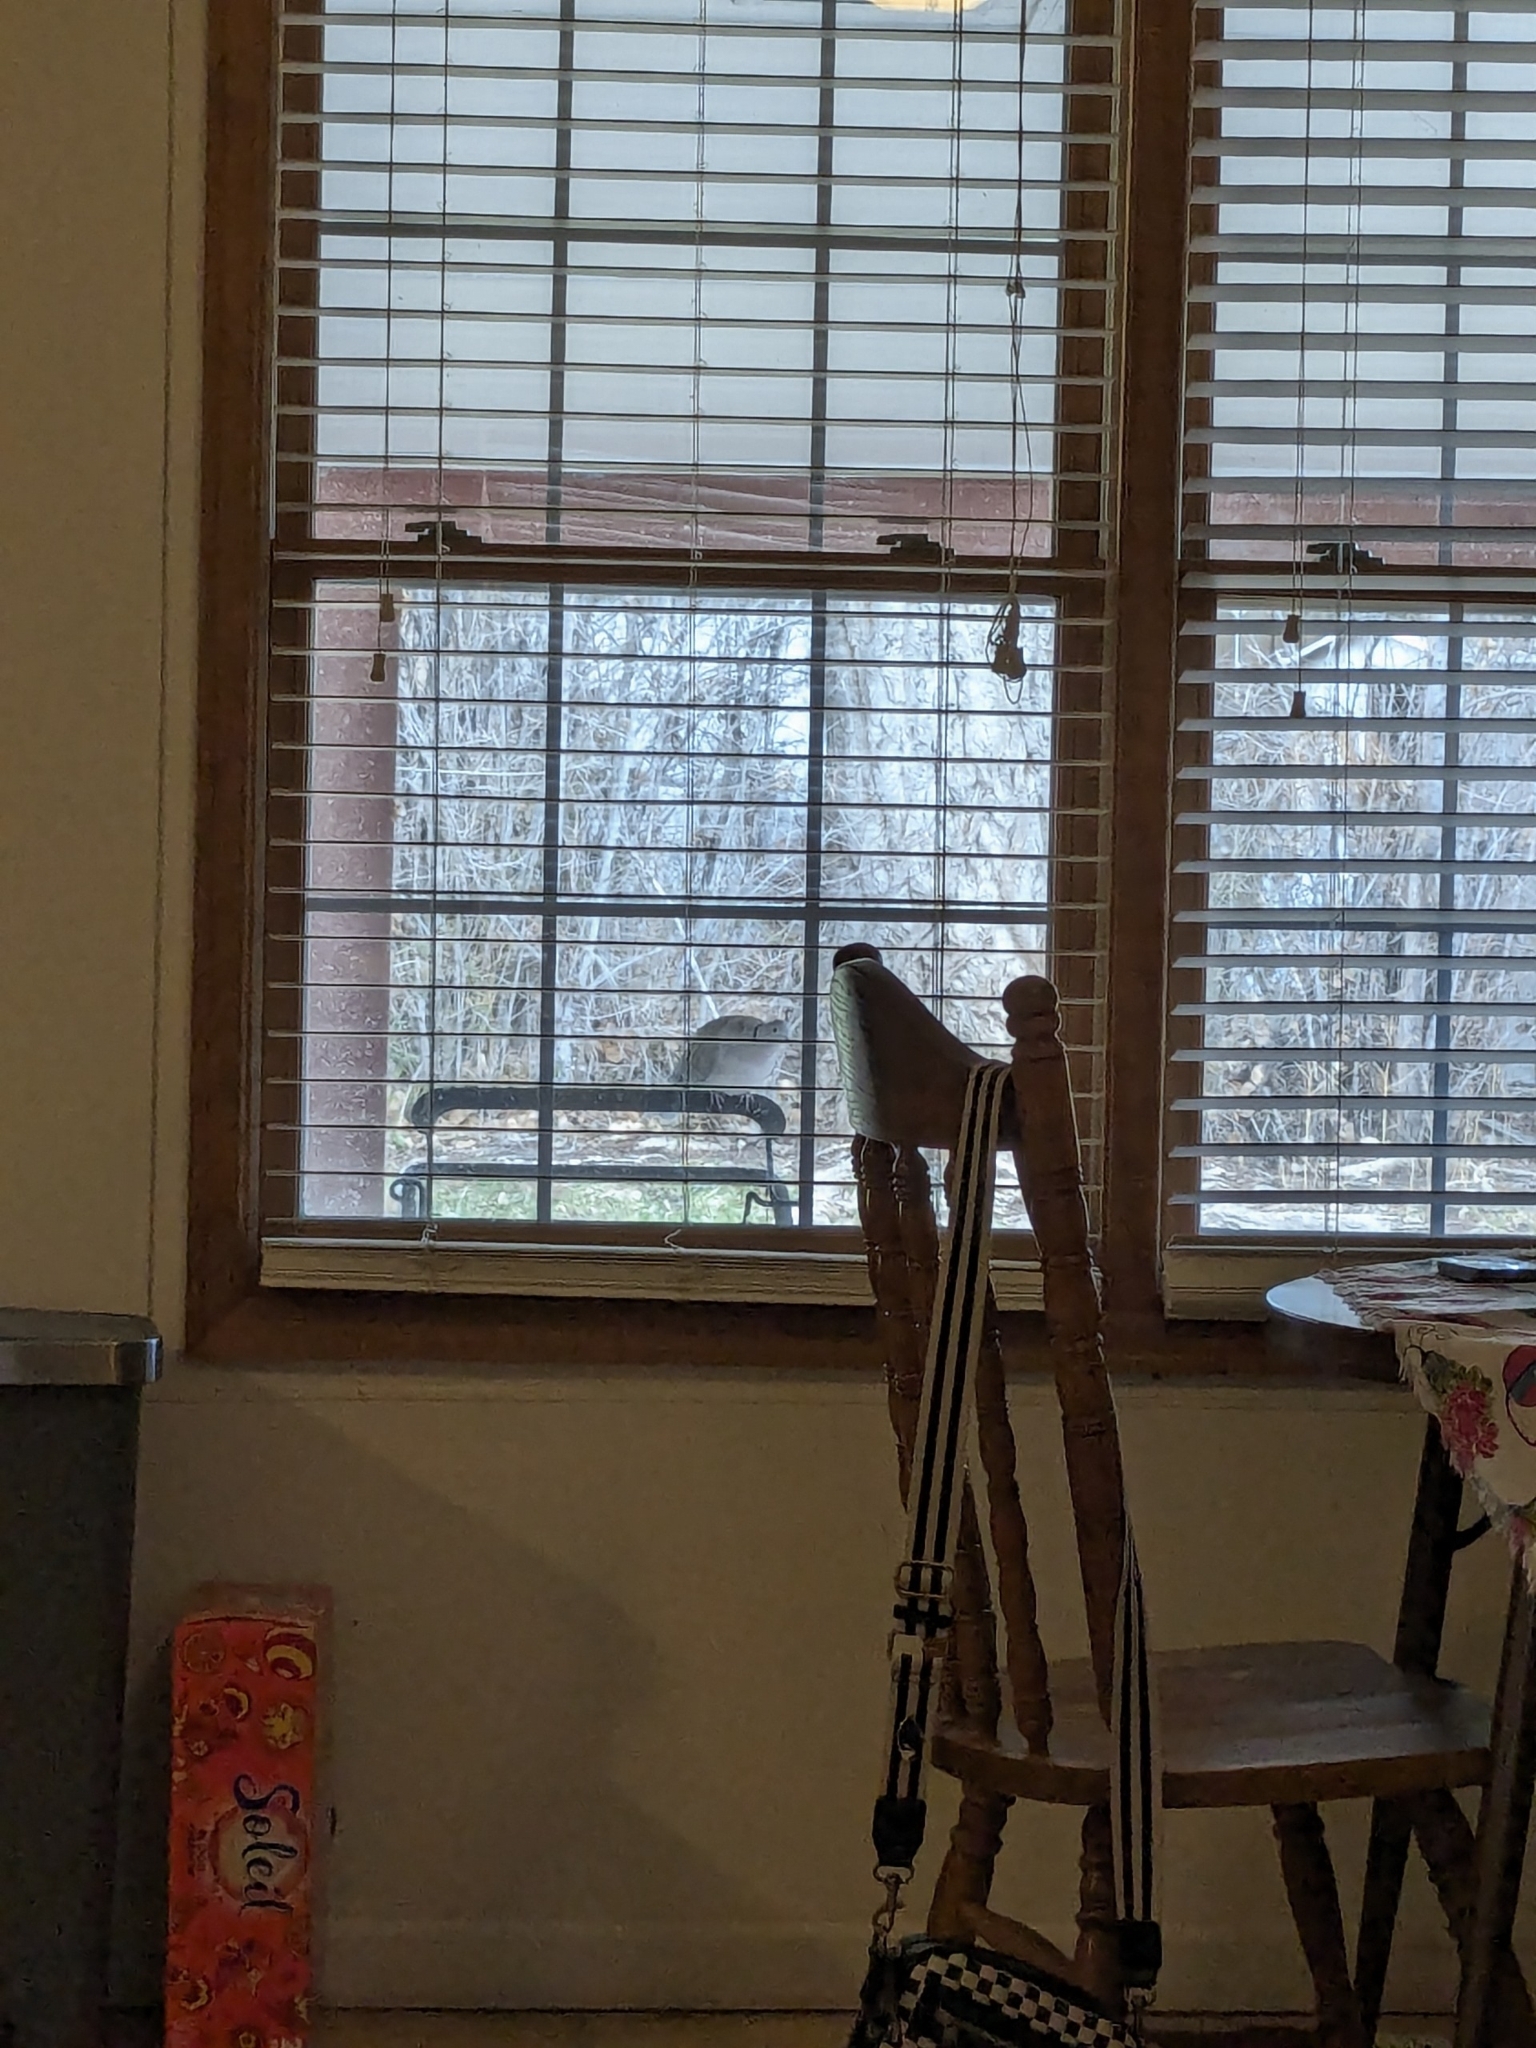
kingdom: Animalia
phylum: Chordata
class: Aves
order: Columbiformes
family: Columbidae
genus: Streptopelia
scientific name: Streptopelia decaocto
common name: Eurasian collared dove
